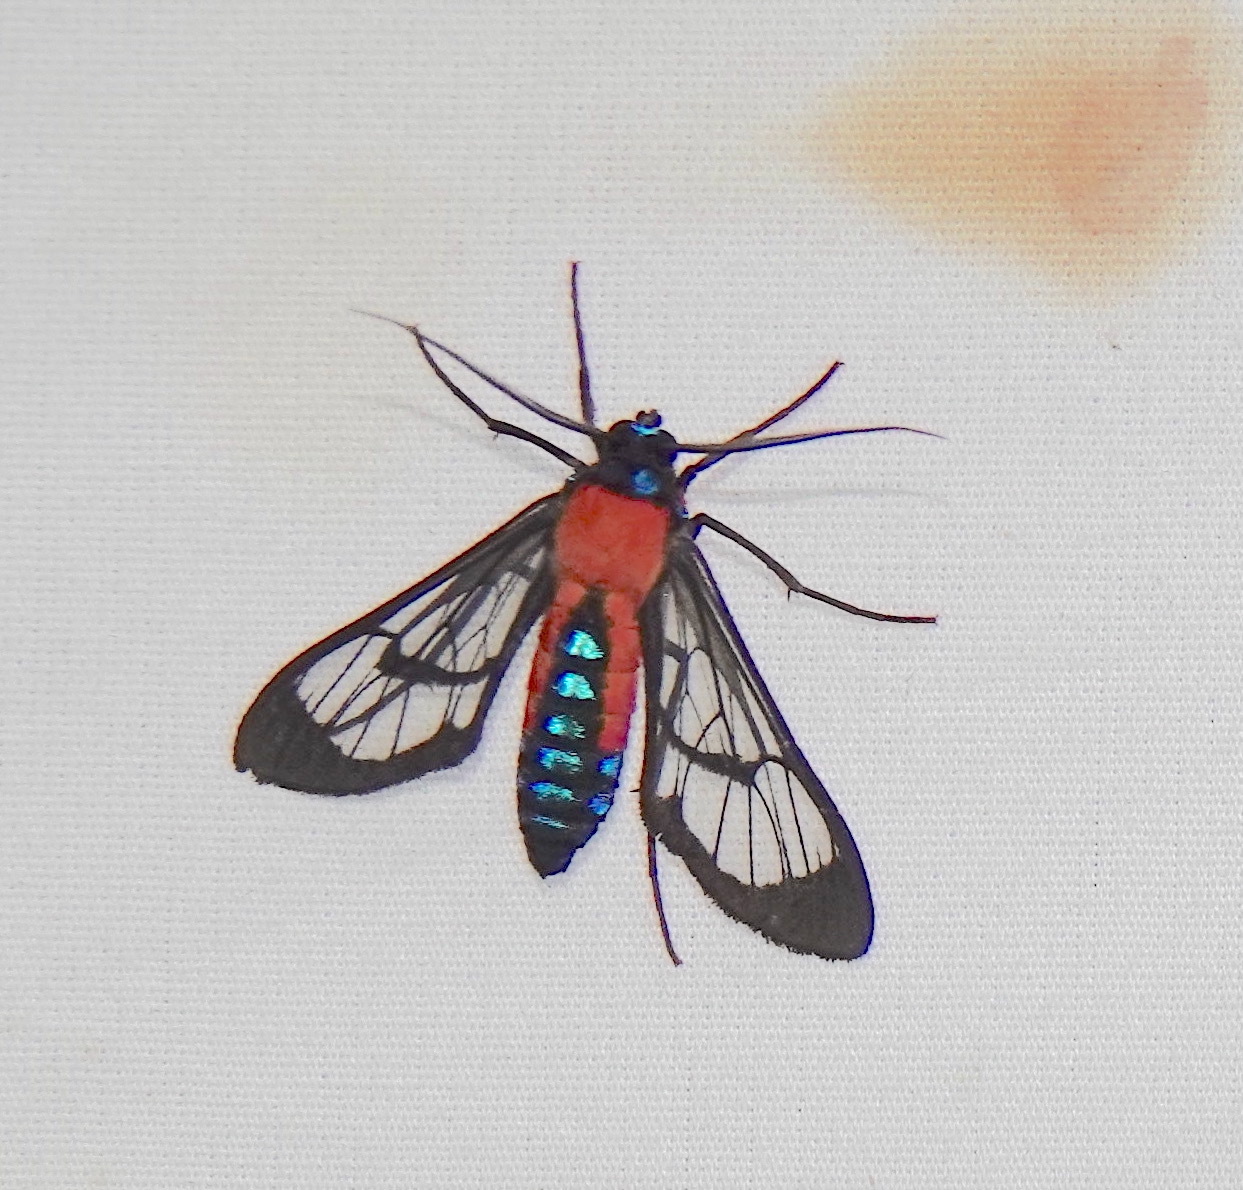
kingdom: Animalia
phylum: Arthropoda
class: Insecta
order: Lepidoptera
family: Erebidae
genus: Cosmosoma
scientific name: Cosmosoma oroyana
